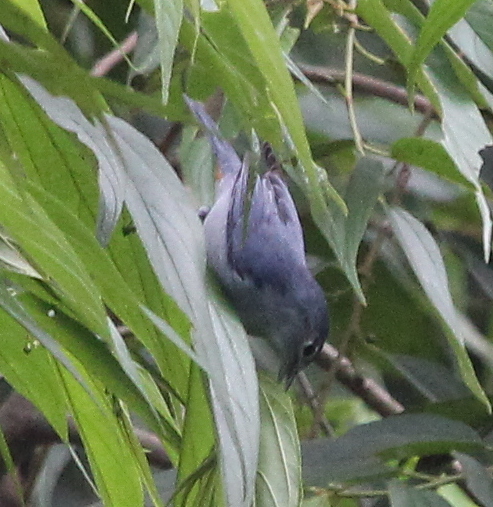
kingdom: Animalia
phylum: Chordata
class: Aves
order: Passeriformes
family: Thraupidae
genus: Conirostrum
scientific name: Conirostrum speciosum
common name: Chestnut-vented conebill
